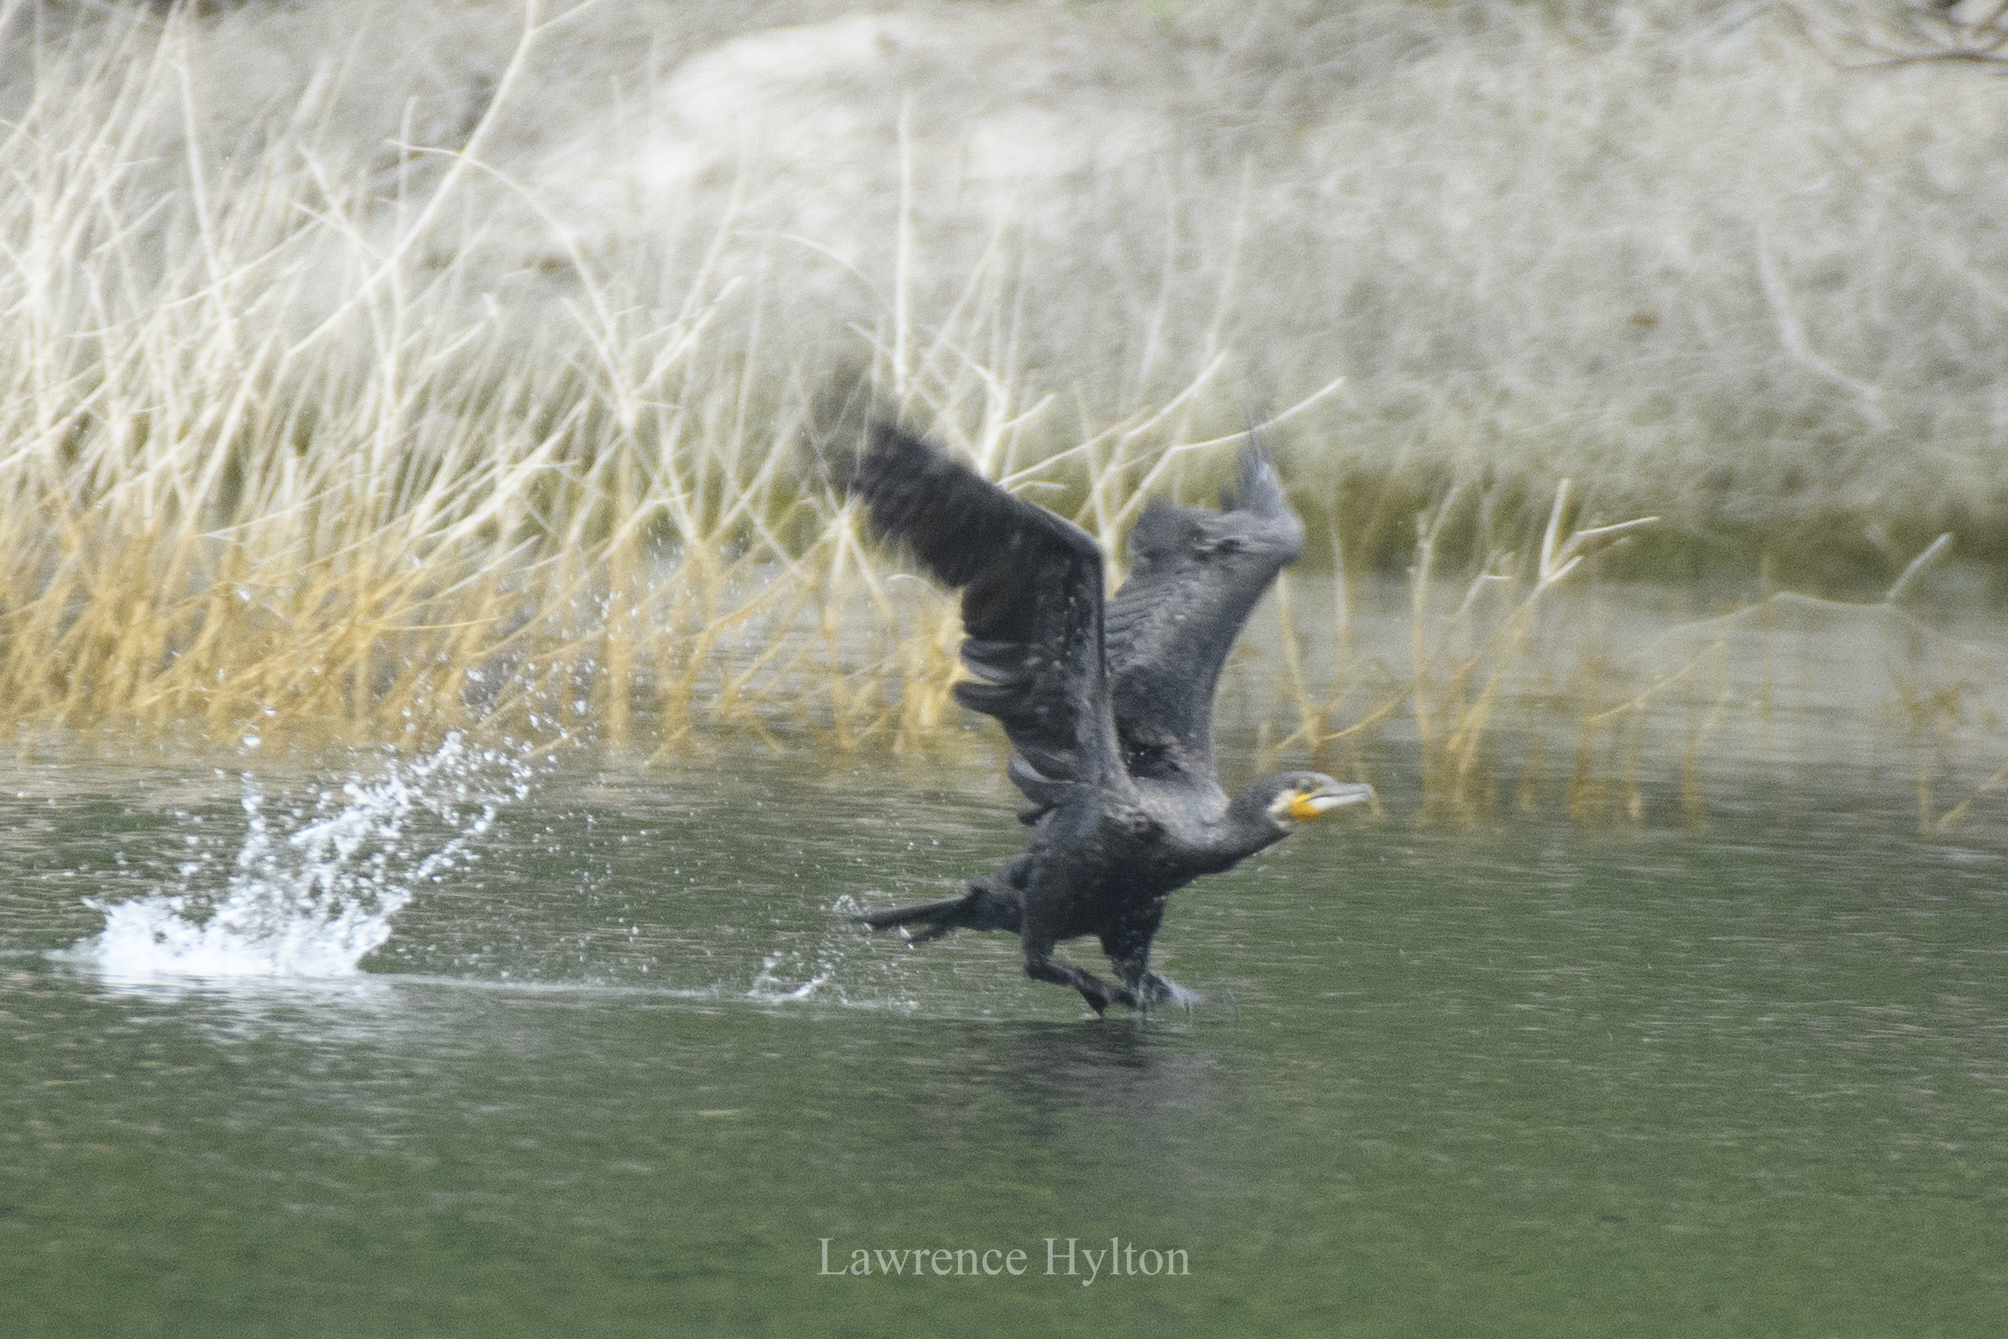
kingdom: Animalia
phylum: Chordata
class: Aves
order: Suliformes
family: Phalacrocoracidae
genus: Phalacrocorax
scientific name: Phalacrocorax carbo
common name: Great cormorant
